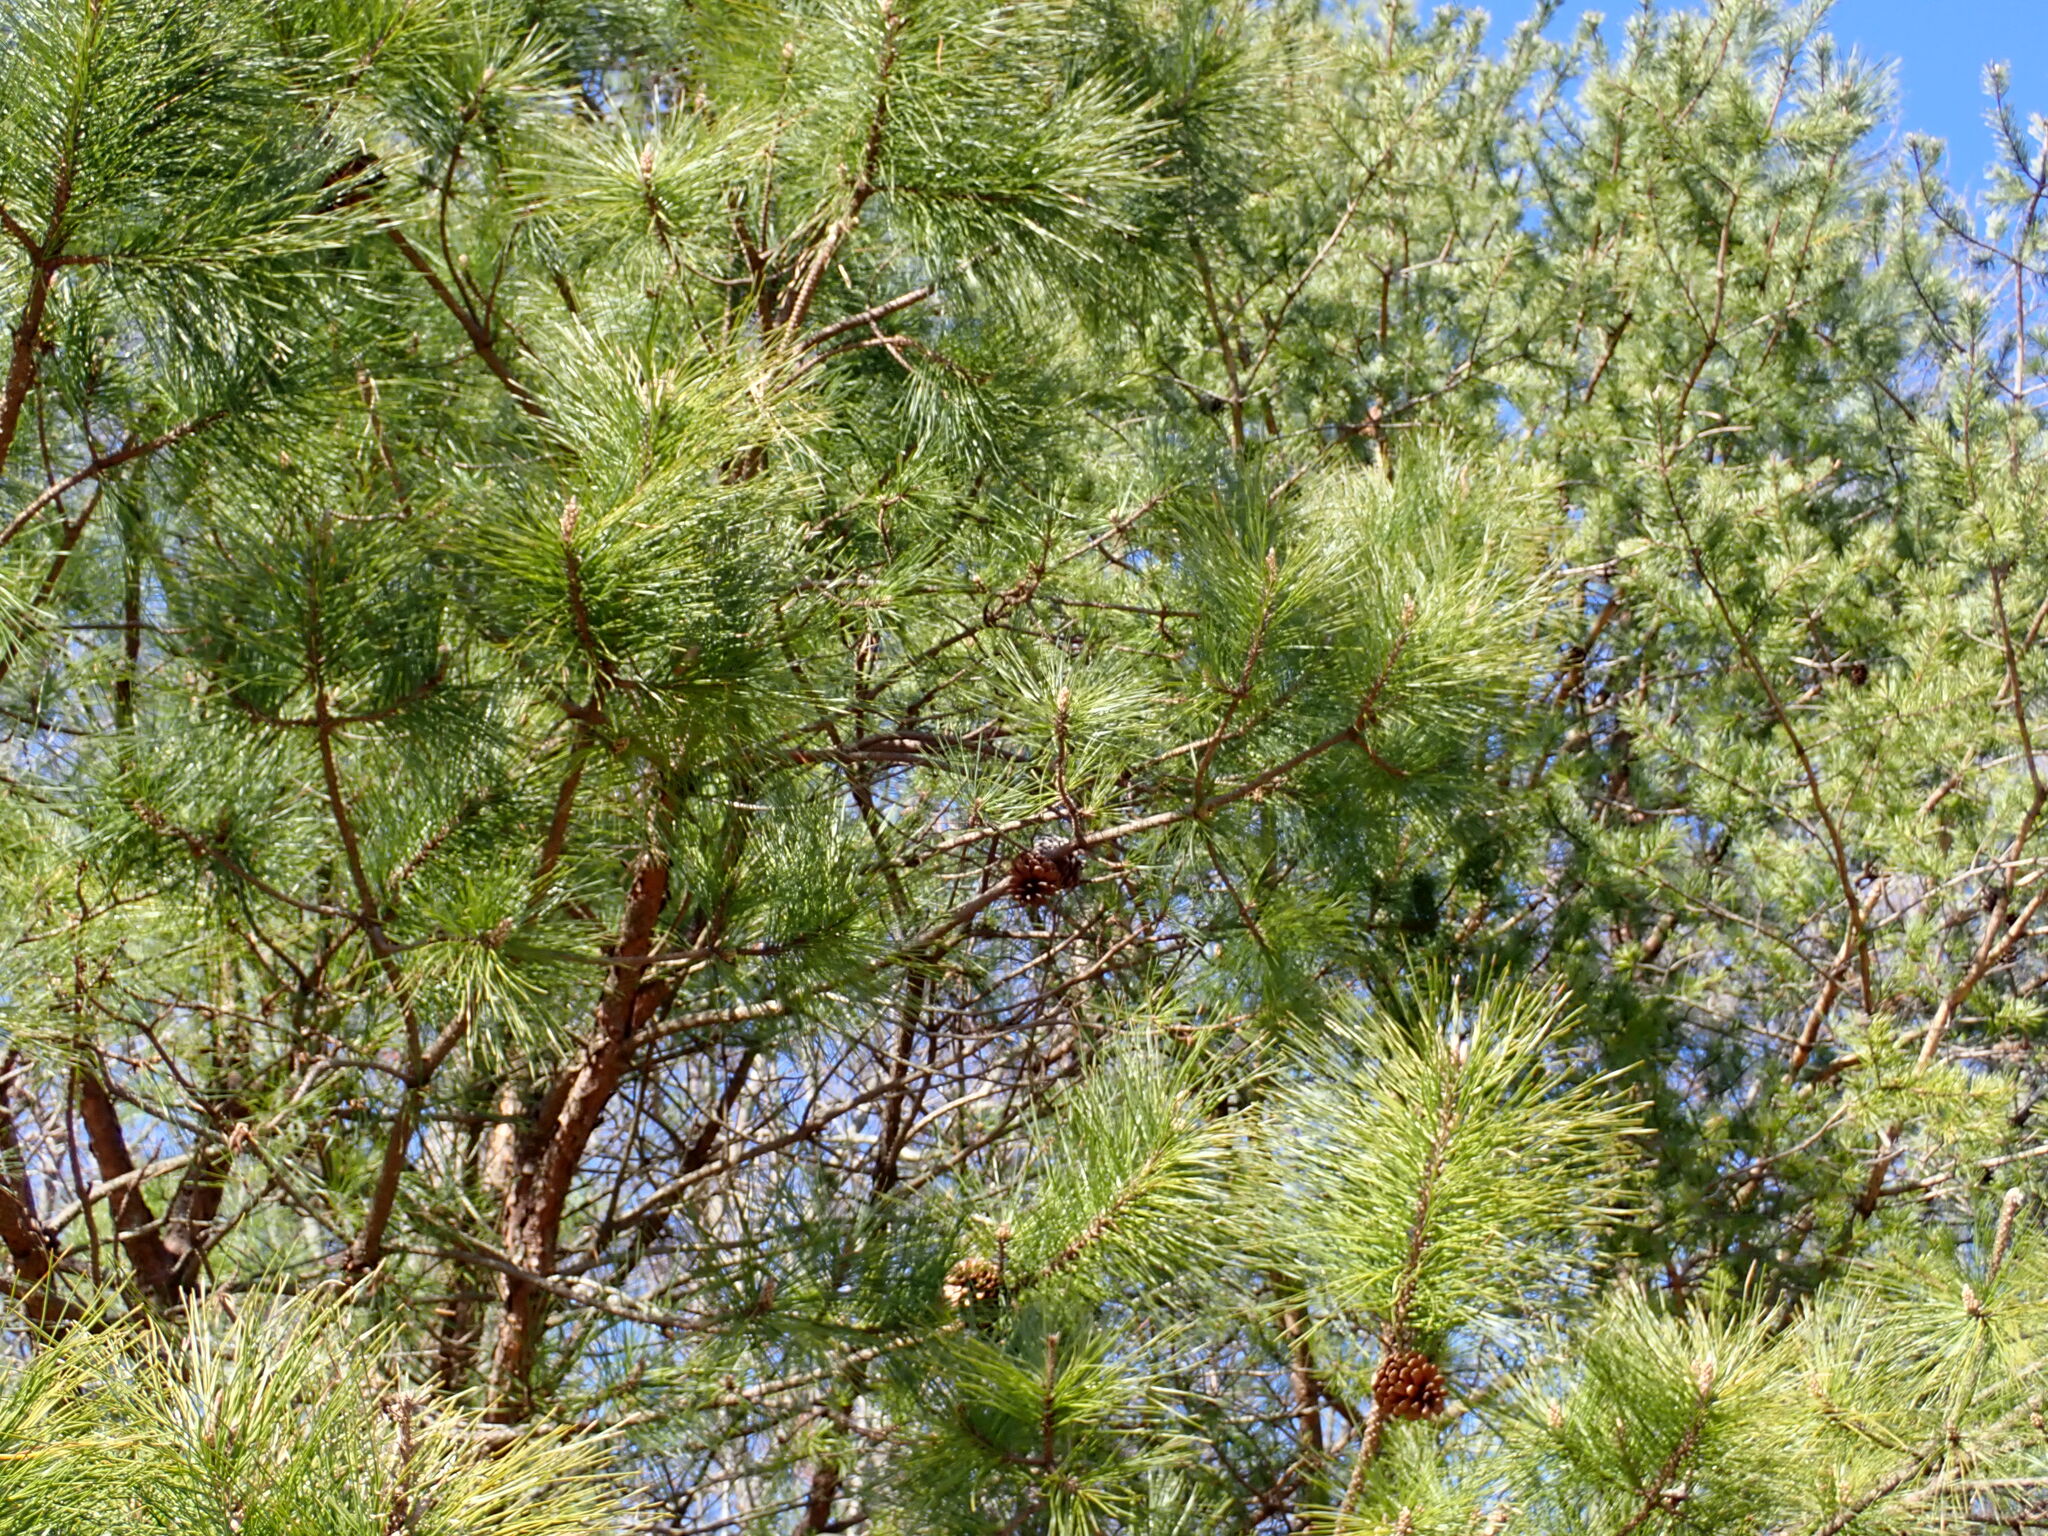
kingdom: Plantae
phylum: Tracheophyta
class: Pinopsida
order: Pinales
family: Pinaceae
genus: Pinus
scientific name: Pinus taeda
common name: Loblolly pine
